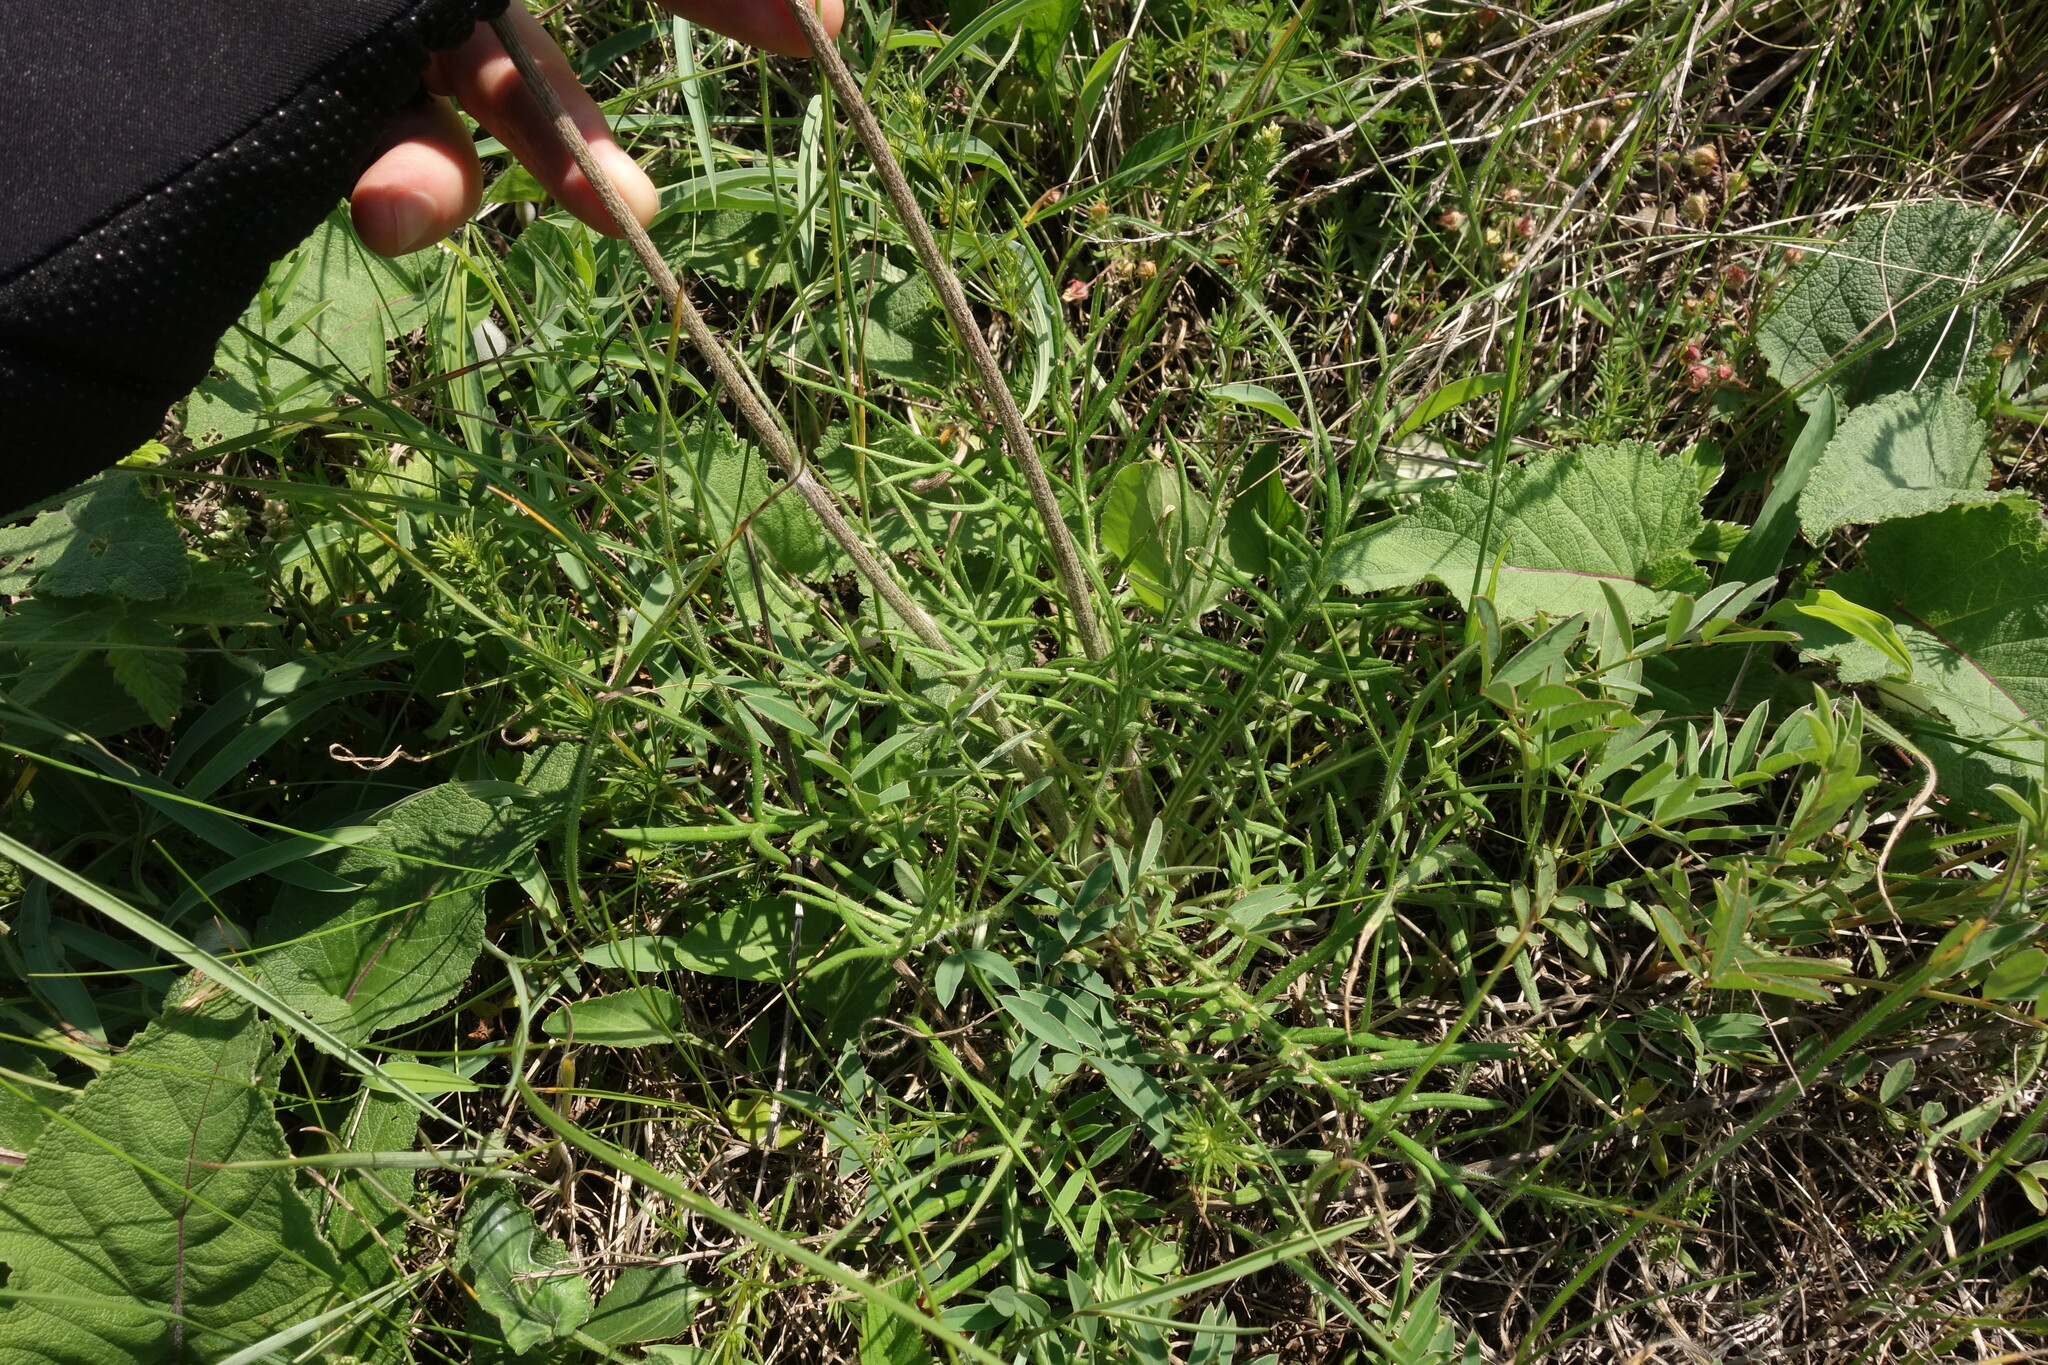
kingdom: Plantae
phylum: Tracheophyta
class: Magnoliopsida
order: Asterales
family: Asteraceae
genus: Jurinea
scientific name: Jurinea arachnoidea
